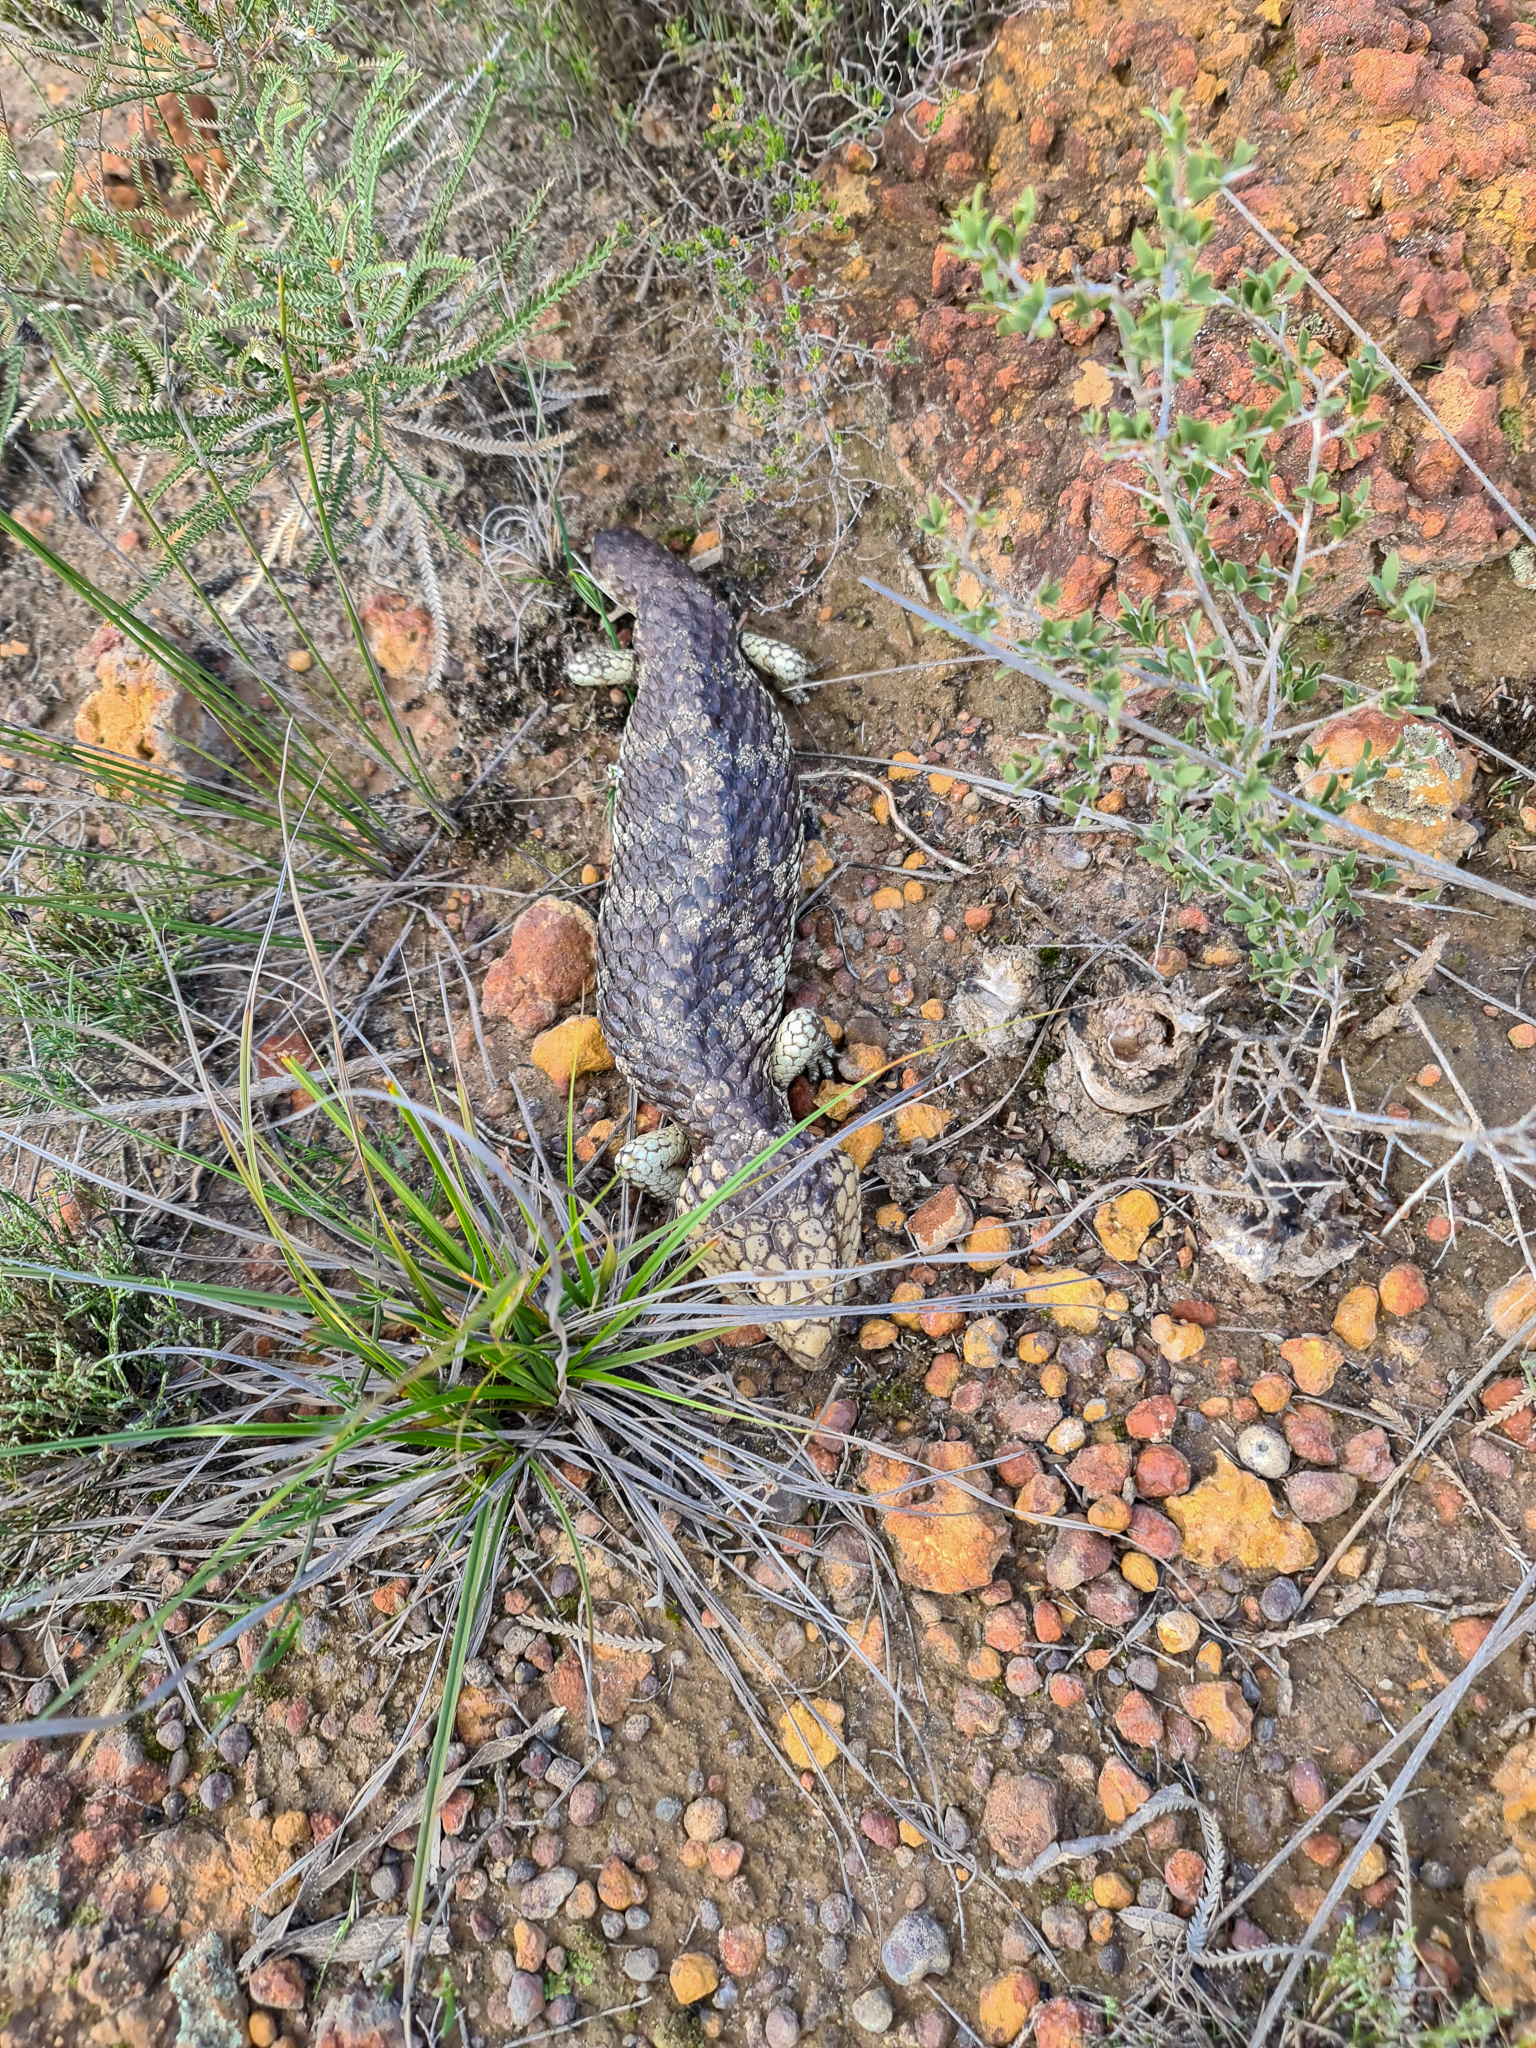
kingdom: Animalia
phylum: Chordata
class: Squamata
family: Scincidae
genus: Tiliqua
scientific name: Tiliqua rugosa
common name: Pinecone lizard
